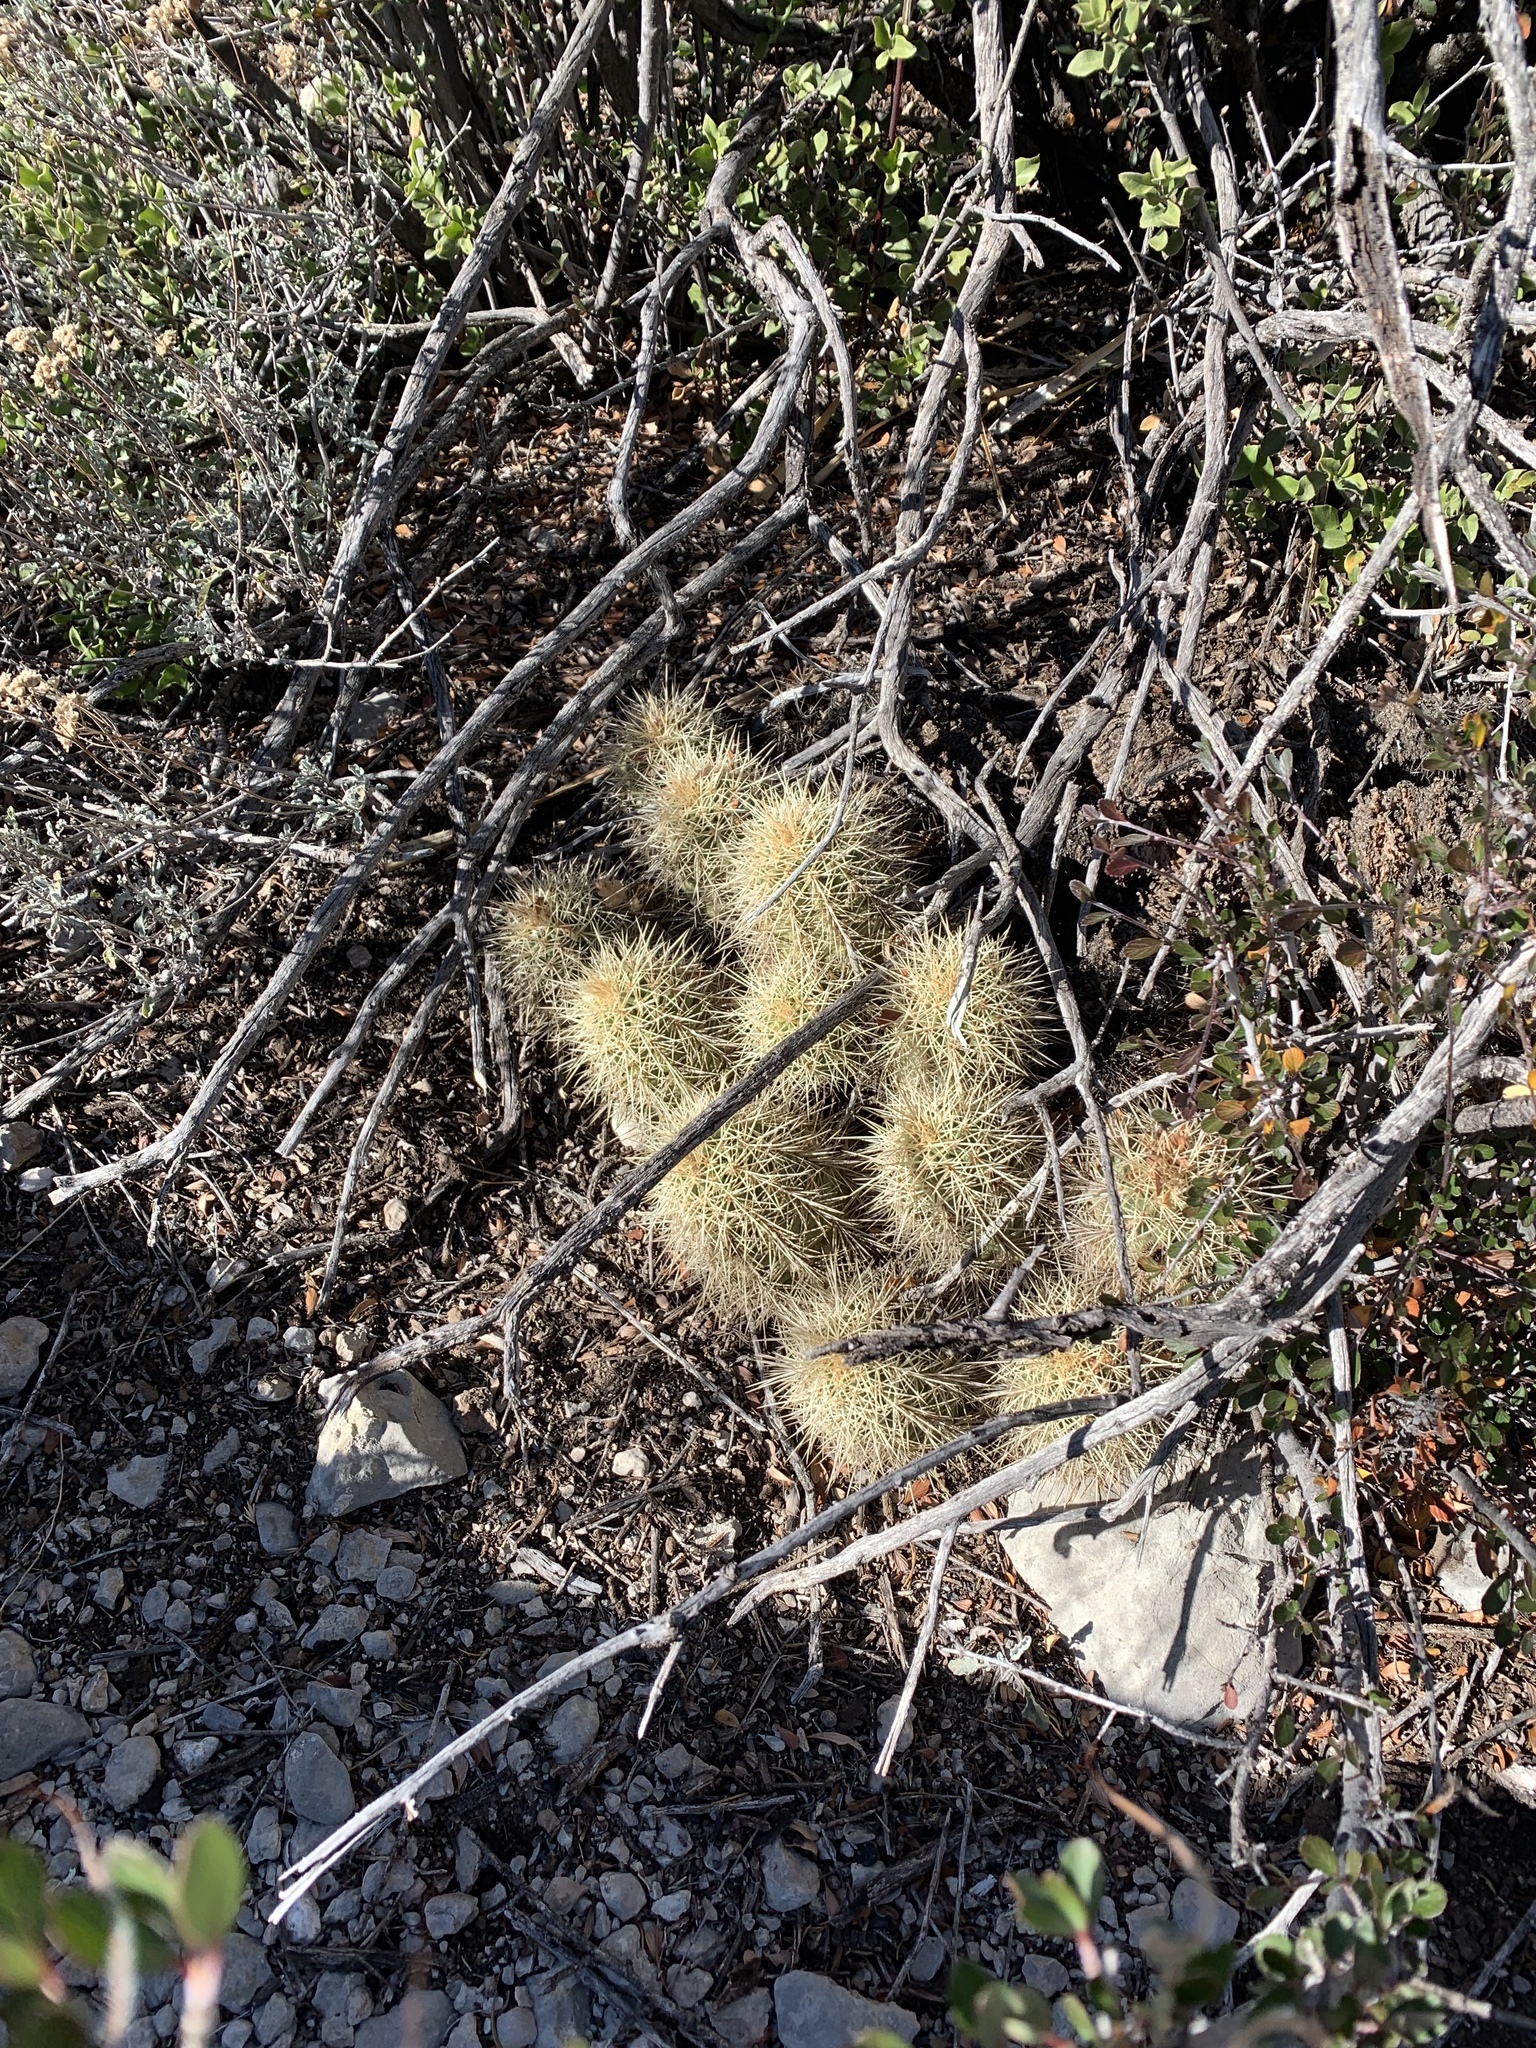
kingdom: Plantae
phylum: Tracheophyta
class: Magnoliopsida
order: Caryophyllales
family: Cactaceae
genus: Echinocereus
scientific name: Echinocereus coccineus
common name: Scarlet hedgehog cactus
